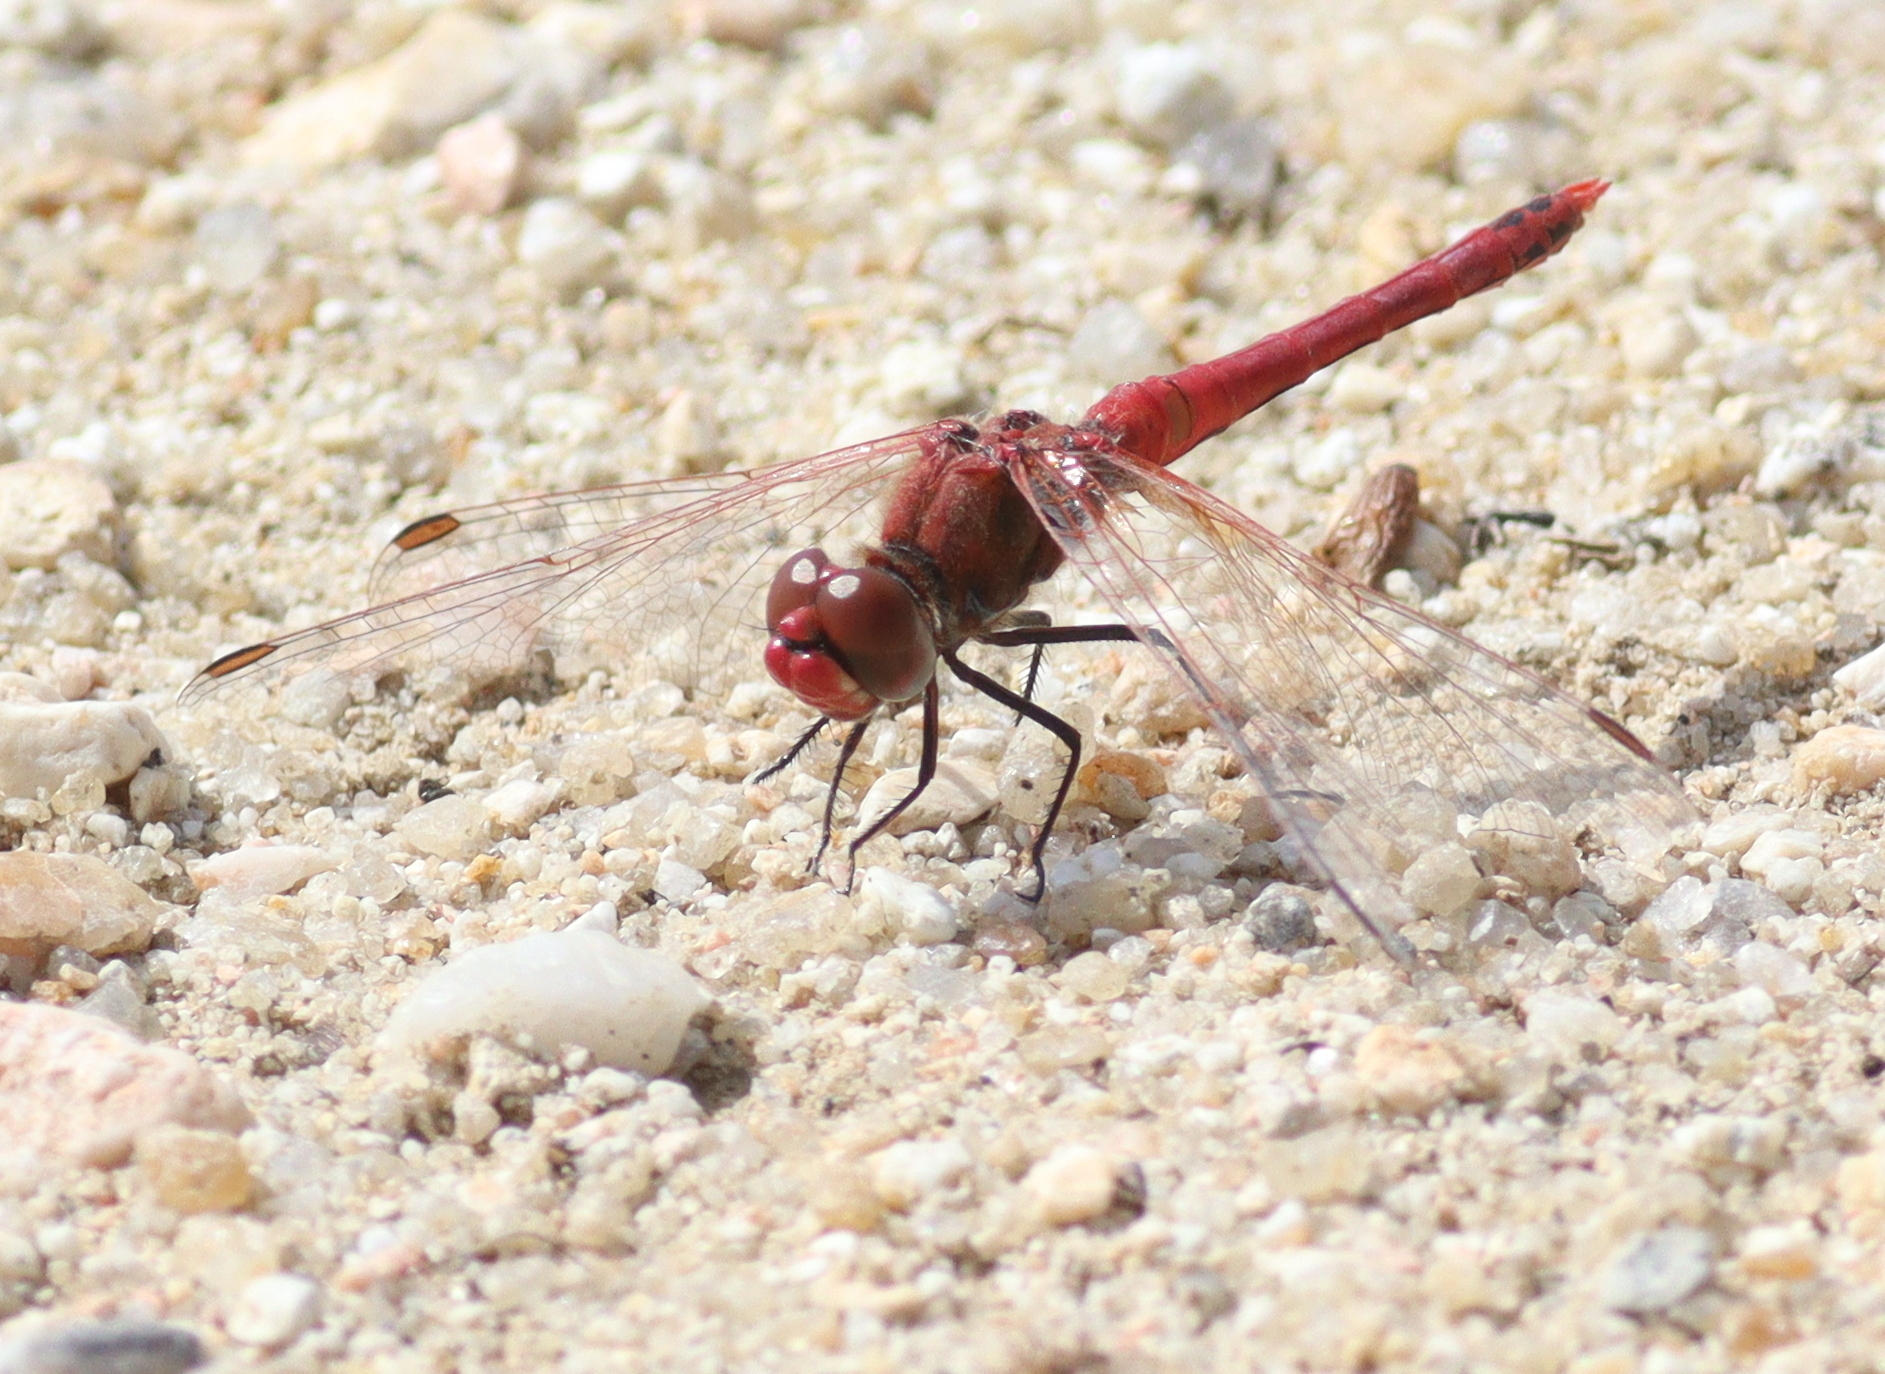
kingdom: Animalia
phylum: Arthropoda
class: Insecta
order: Odonata
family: Libellulidae
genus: Sympetrum
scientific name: Sympetrum fonscolombii
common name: Red-veined darter
